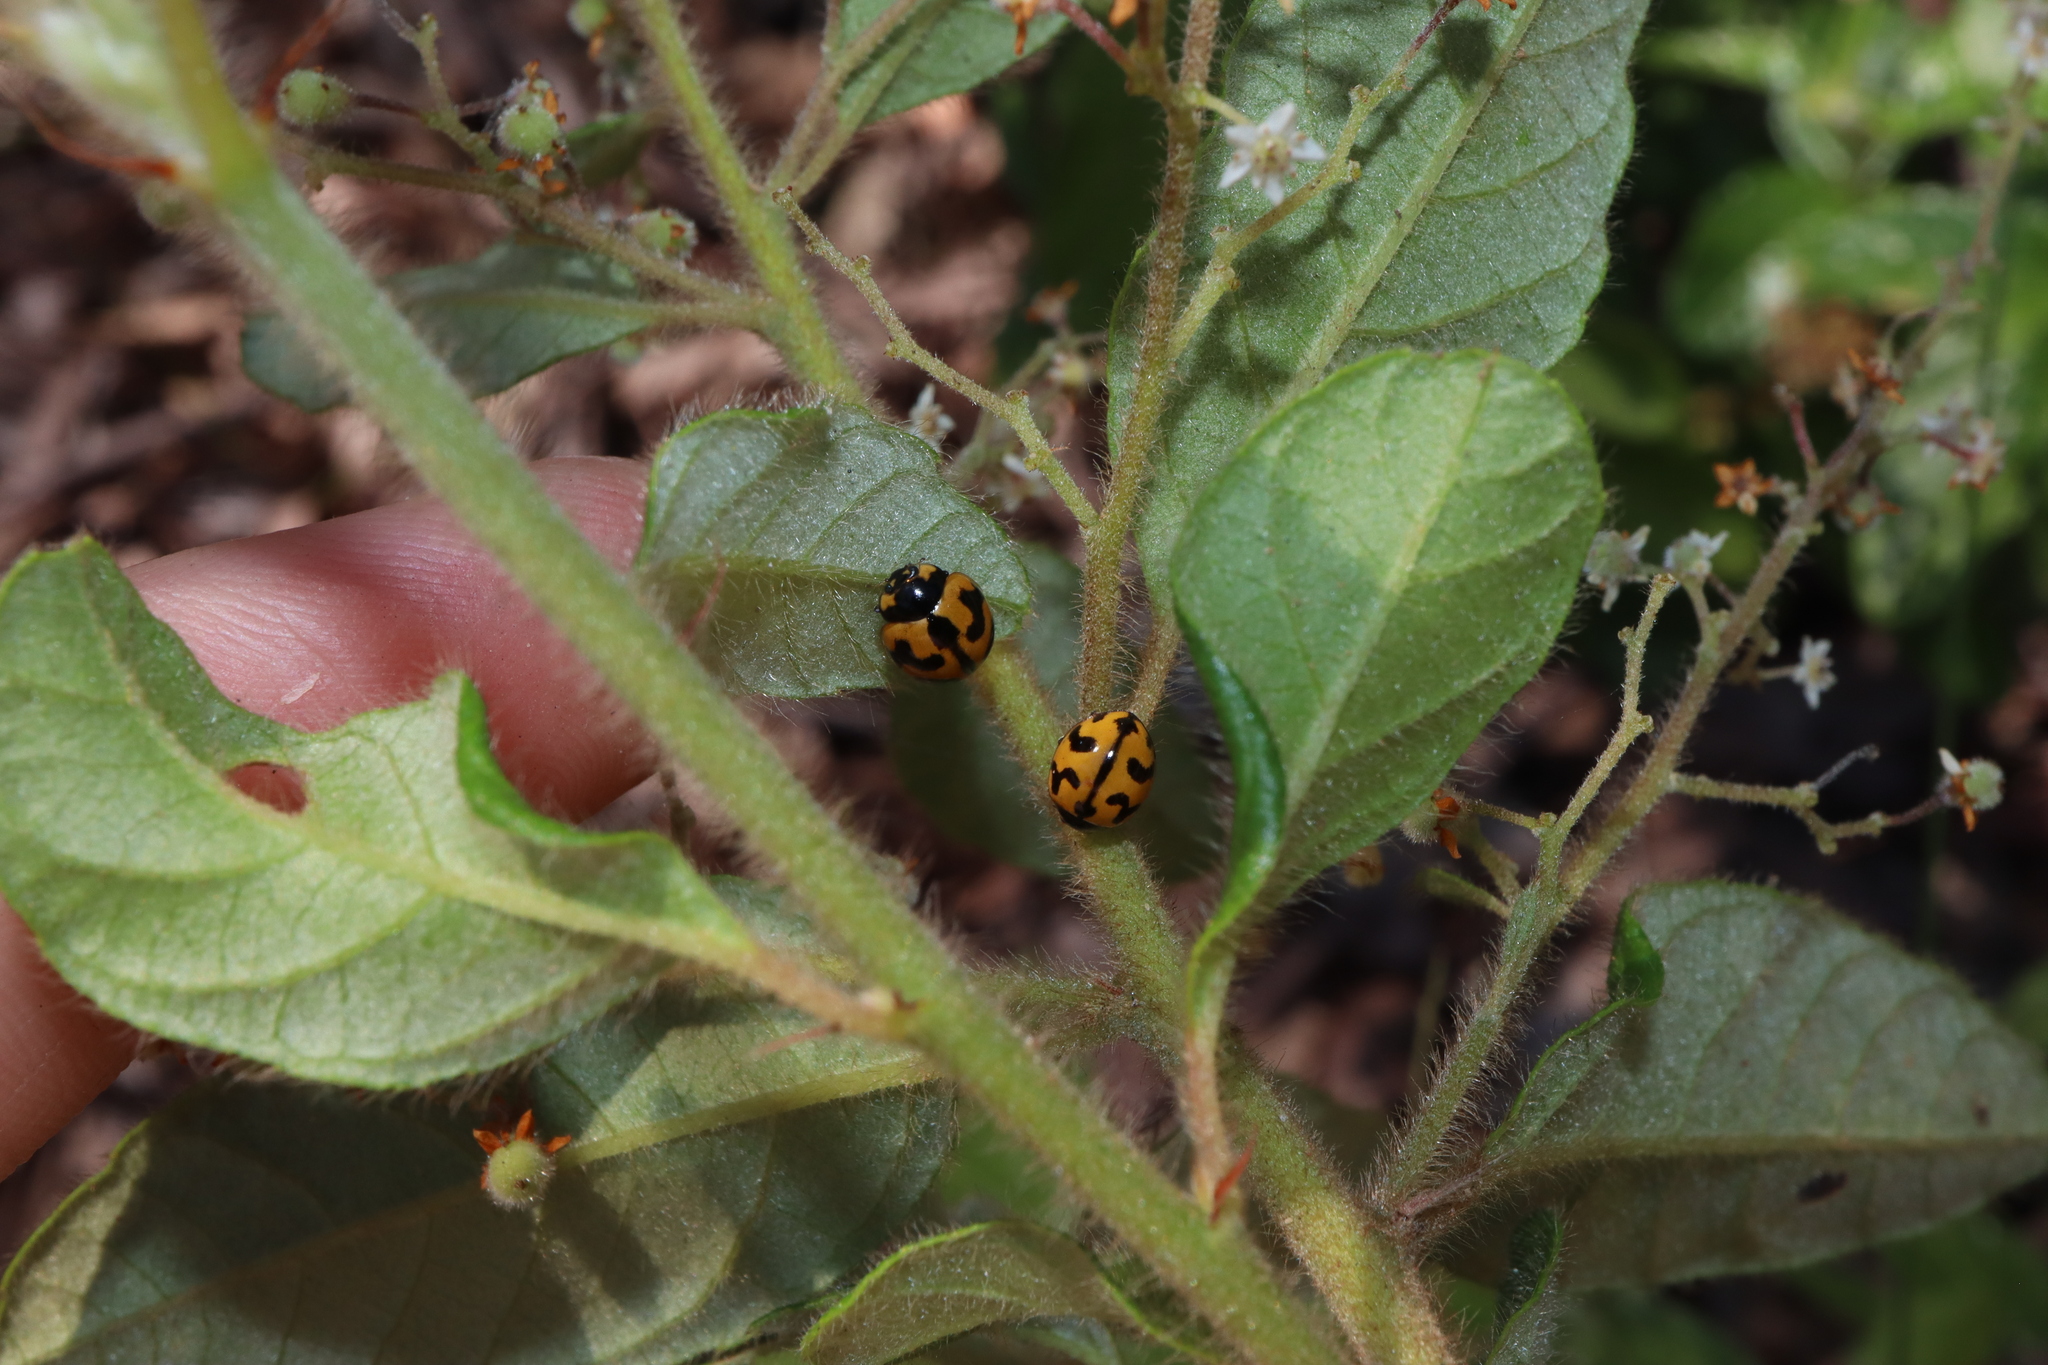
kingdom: Animalia
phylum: Arthropoda
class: Insecta
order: Coleoptera
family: Coccinellidae
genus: Coccinella
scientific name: Coccinella transversalis
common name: Transverse lady beetle
